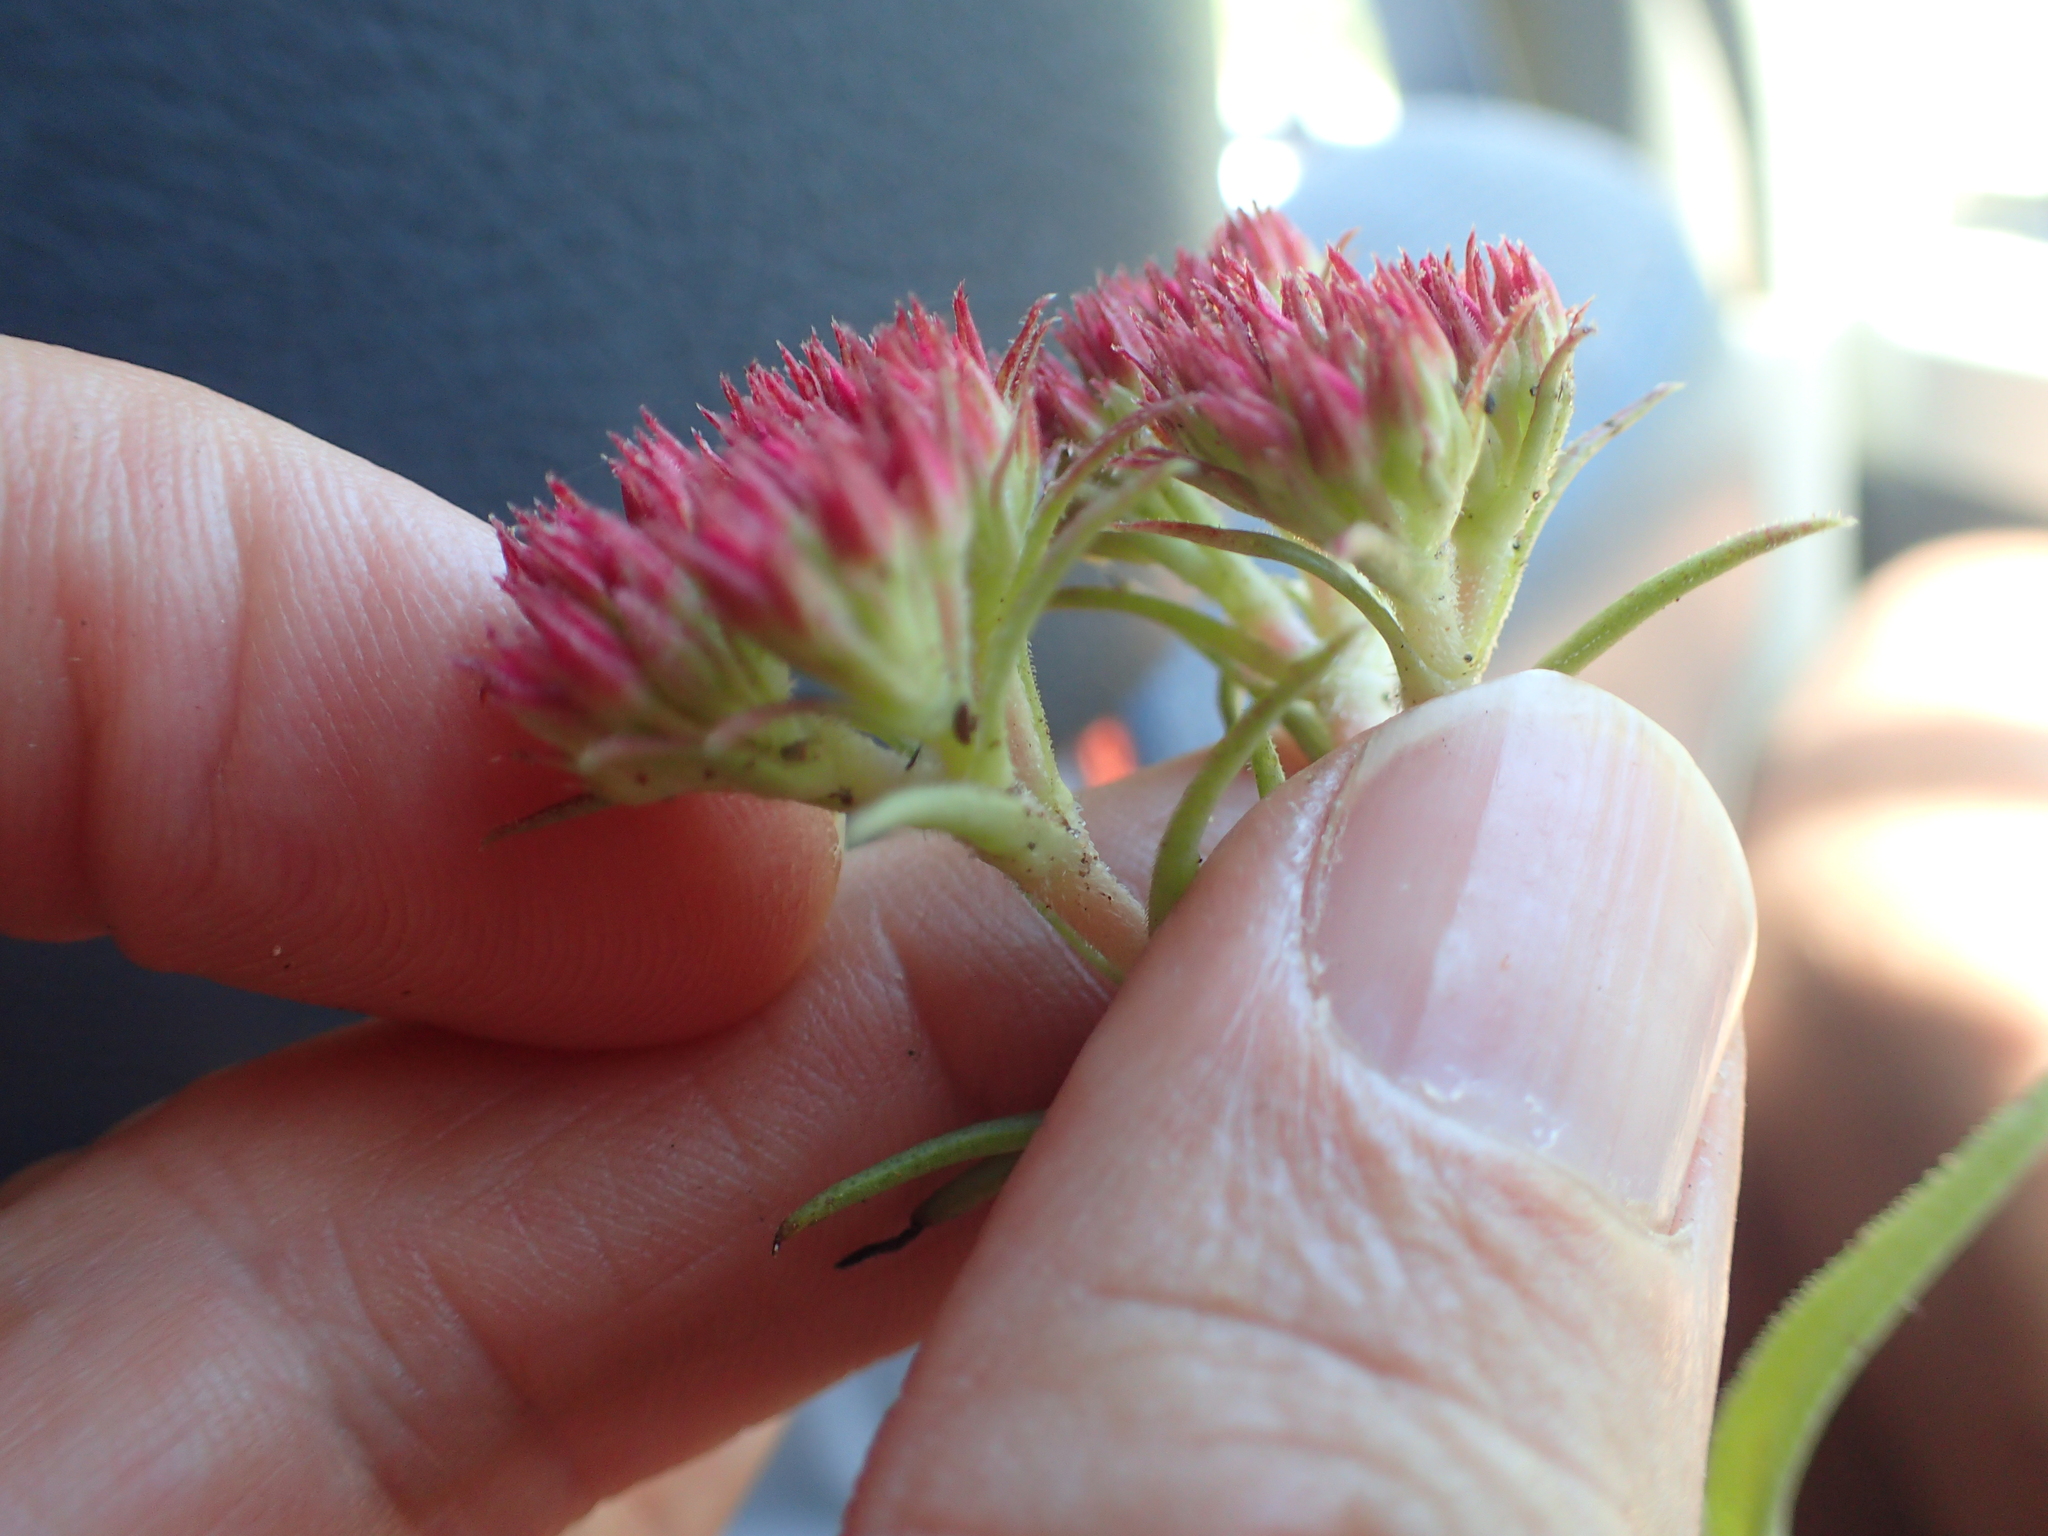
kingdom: Plantae
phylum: Tracheophyta
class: Magnoliopsida
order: Saxifragales
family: Crassulaceae
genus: Crassula
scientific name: Crassula alba
